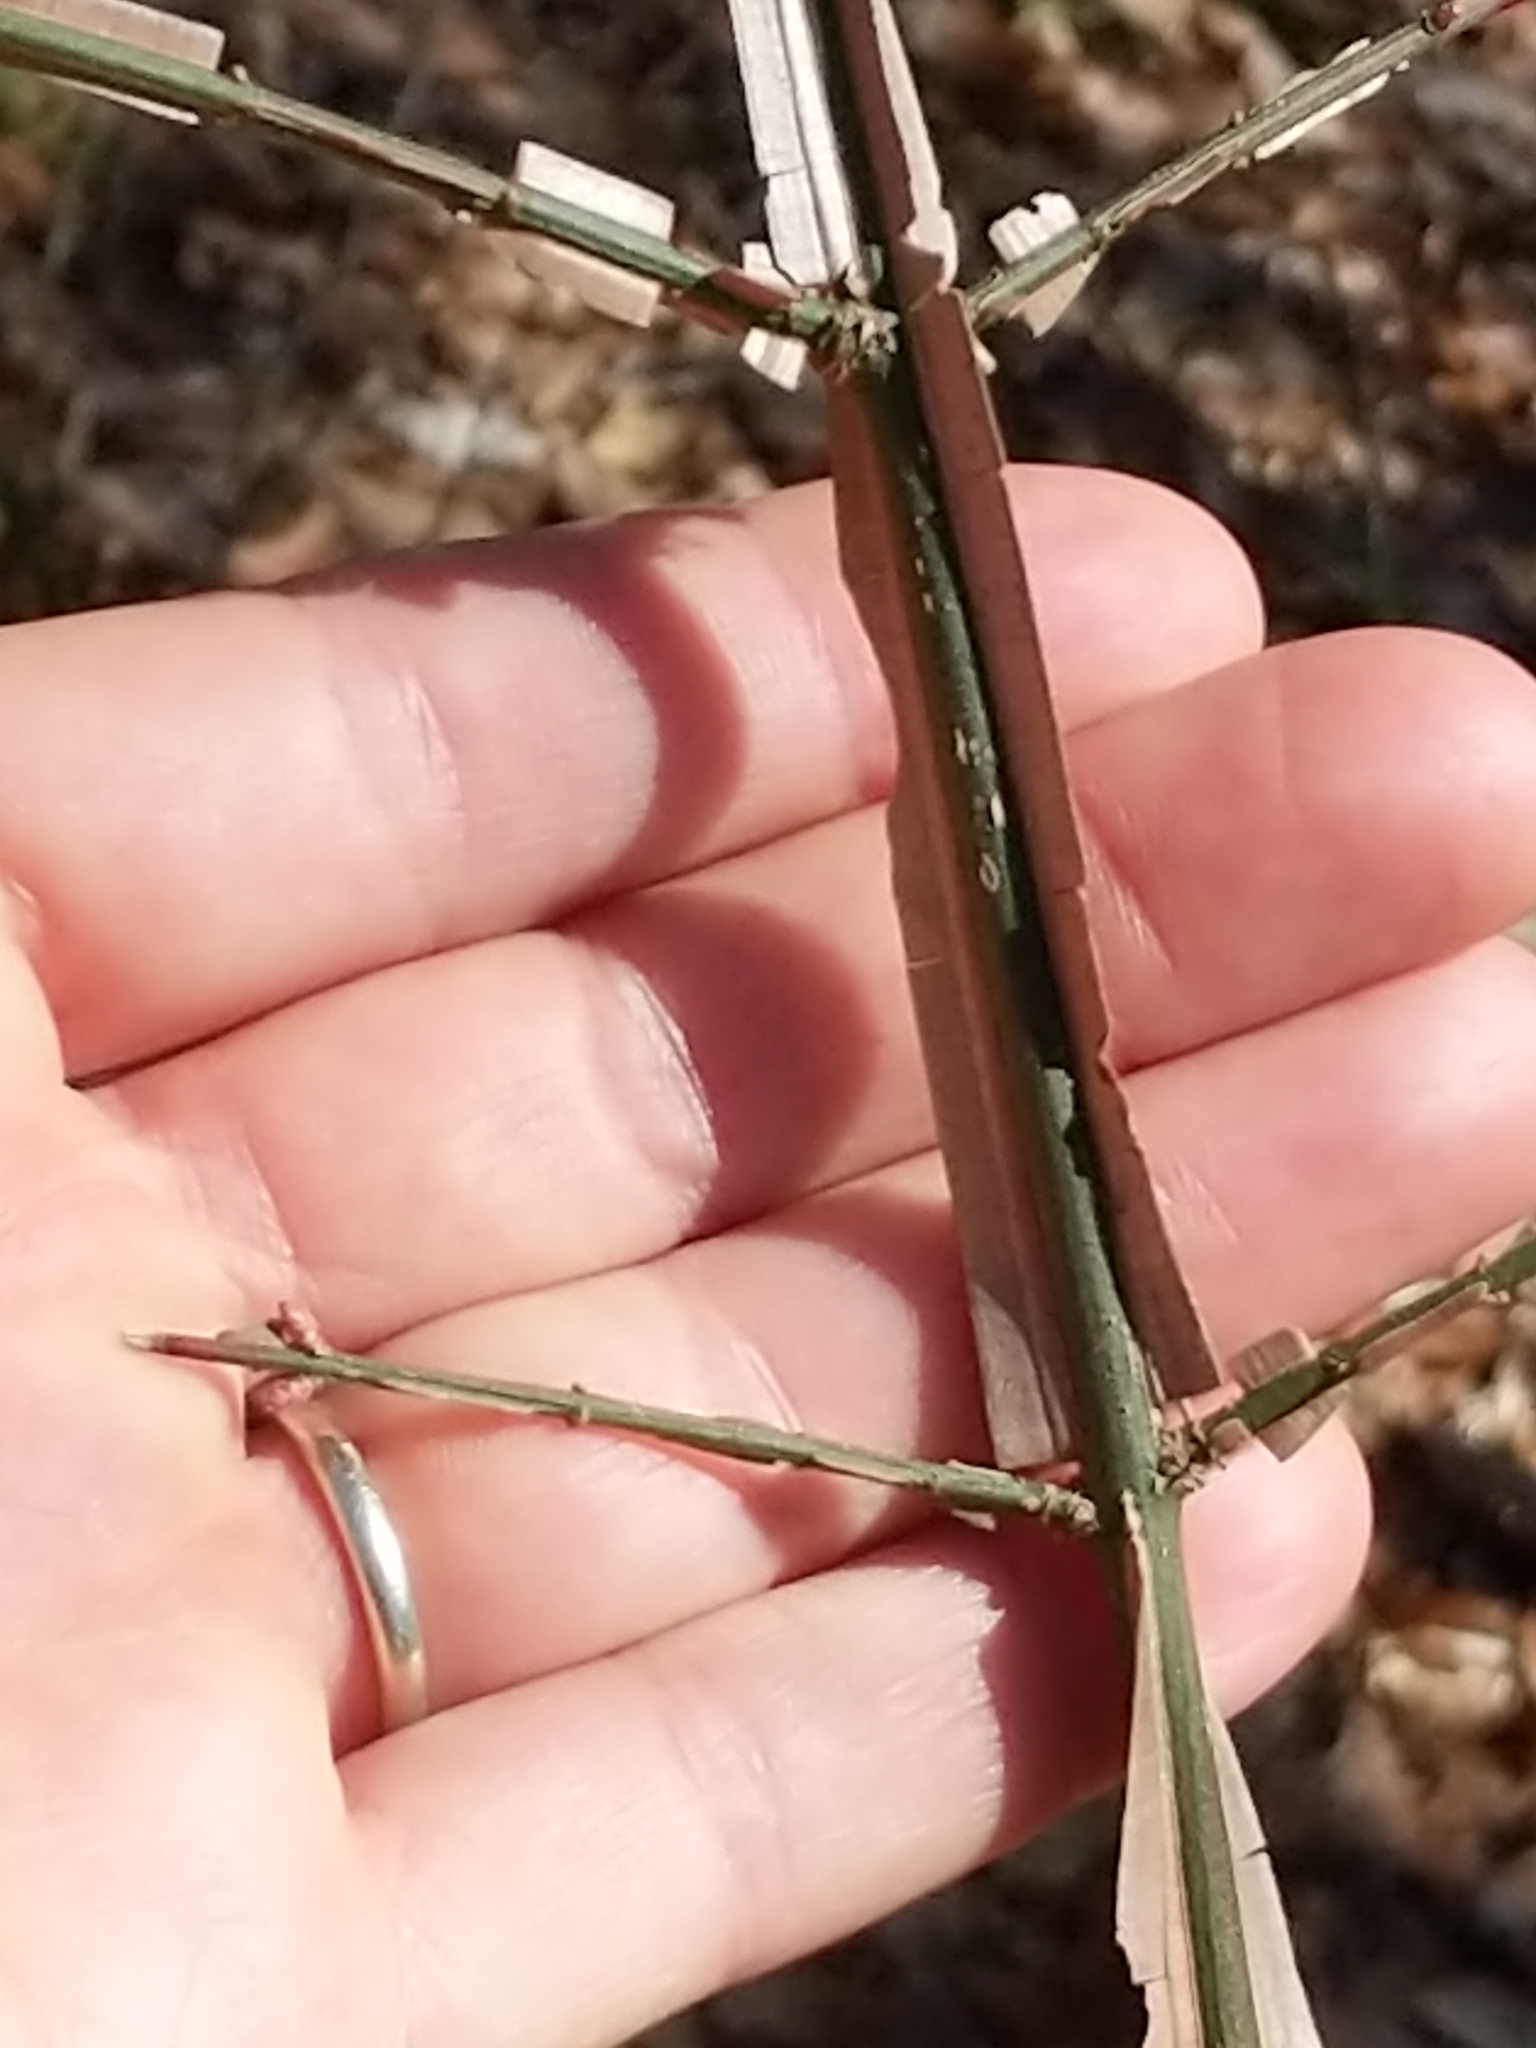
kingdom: Plantae
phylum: Tracheophyta
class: Magnoliopsida
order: Celastrales
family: Celastraceae
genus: Euonymus
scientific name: Euonymus alatus
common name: Winged euonymus
